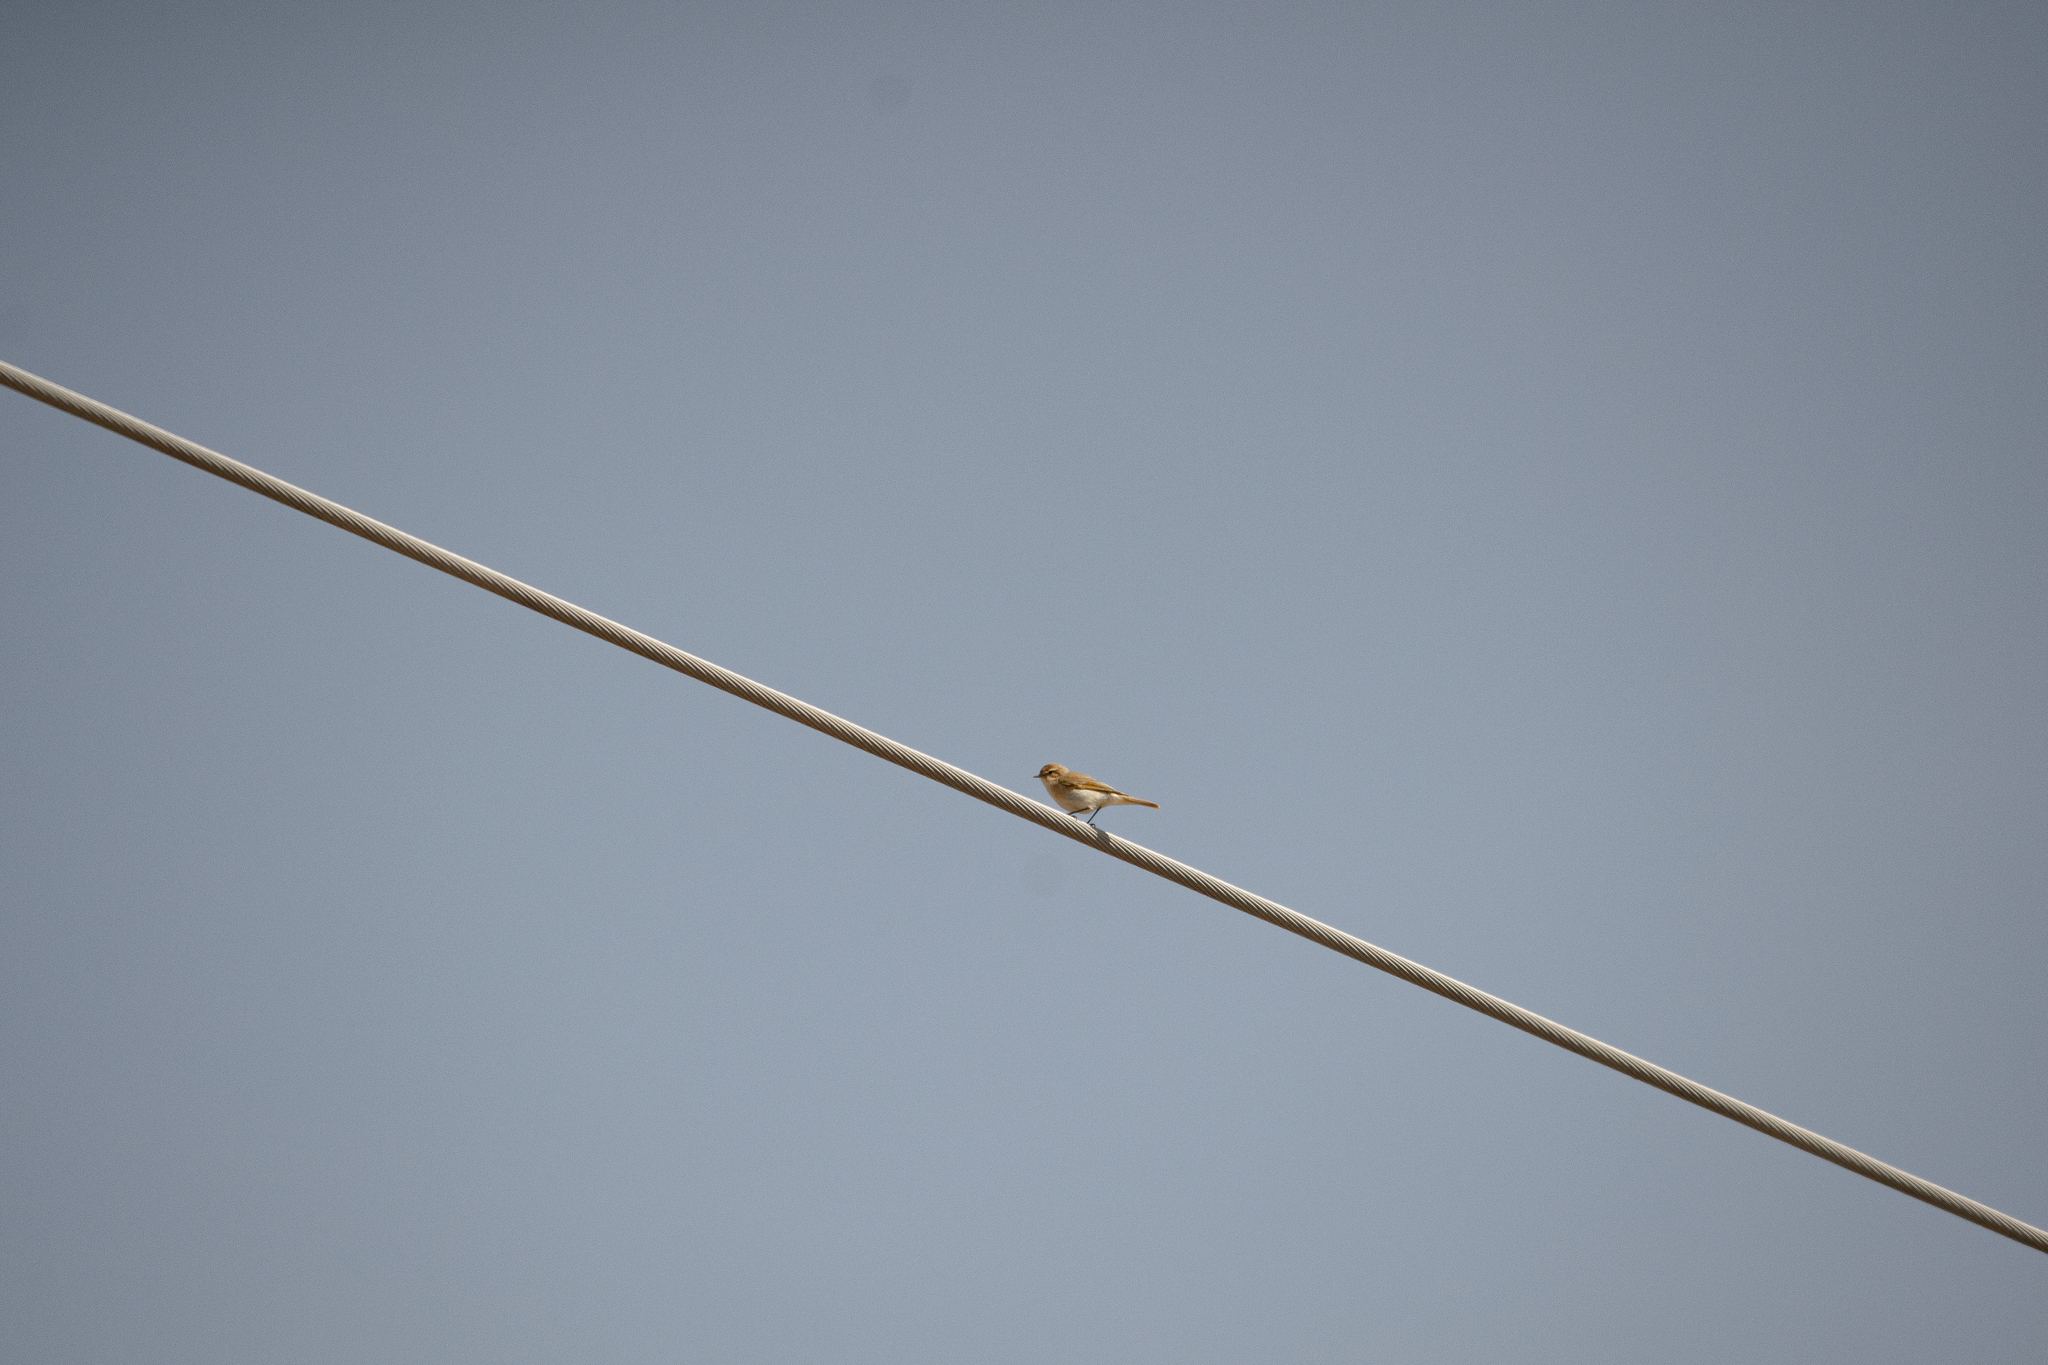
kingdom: Animalia
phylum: Chordata
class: Aves
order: Passeriformes
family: Phylloscopidae
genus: Phylloscopus
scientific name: Phylloscopus collybita
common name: Common chiffchaff
